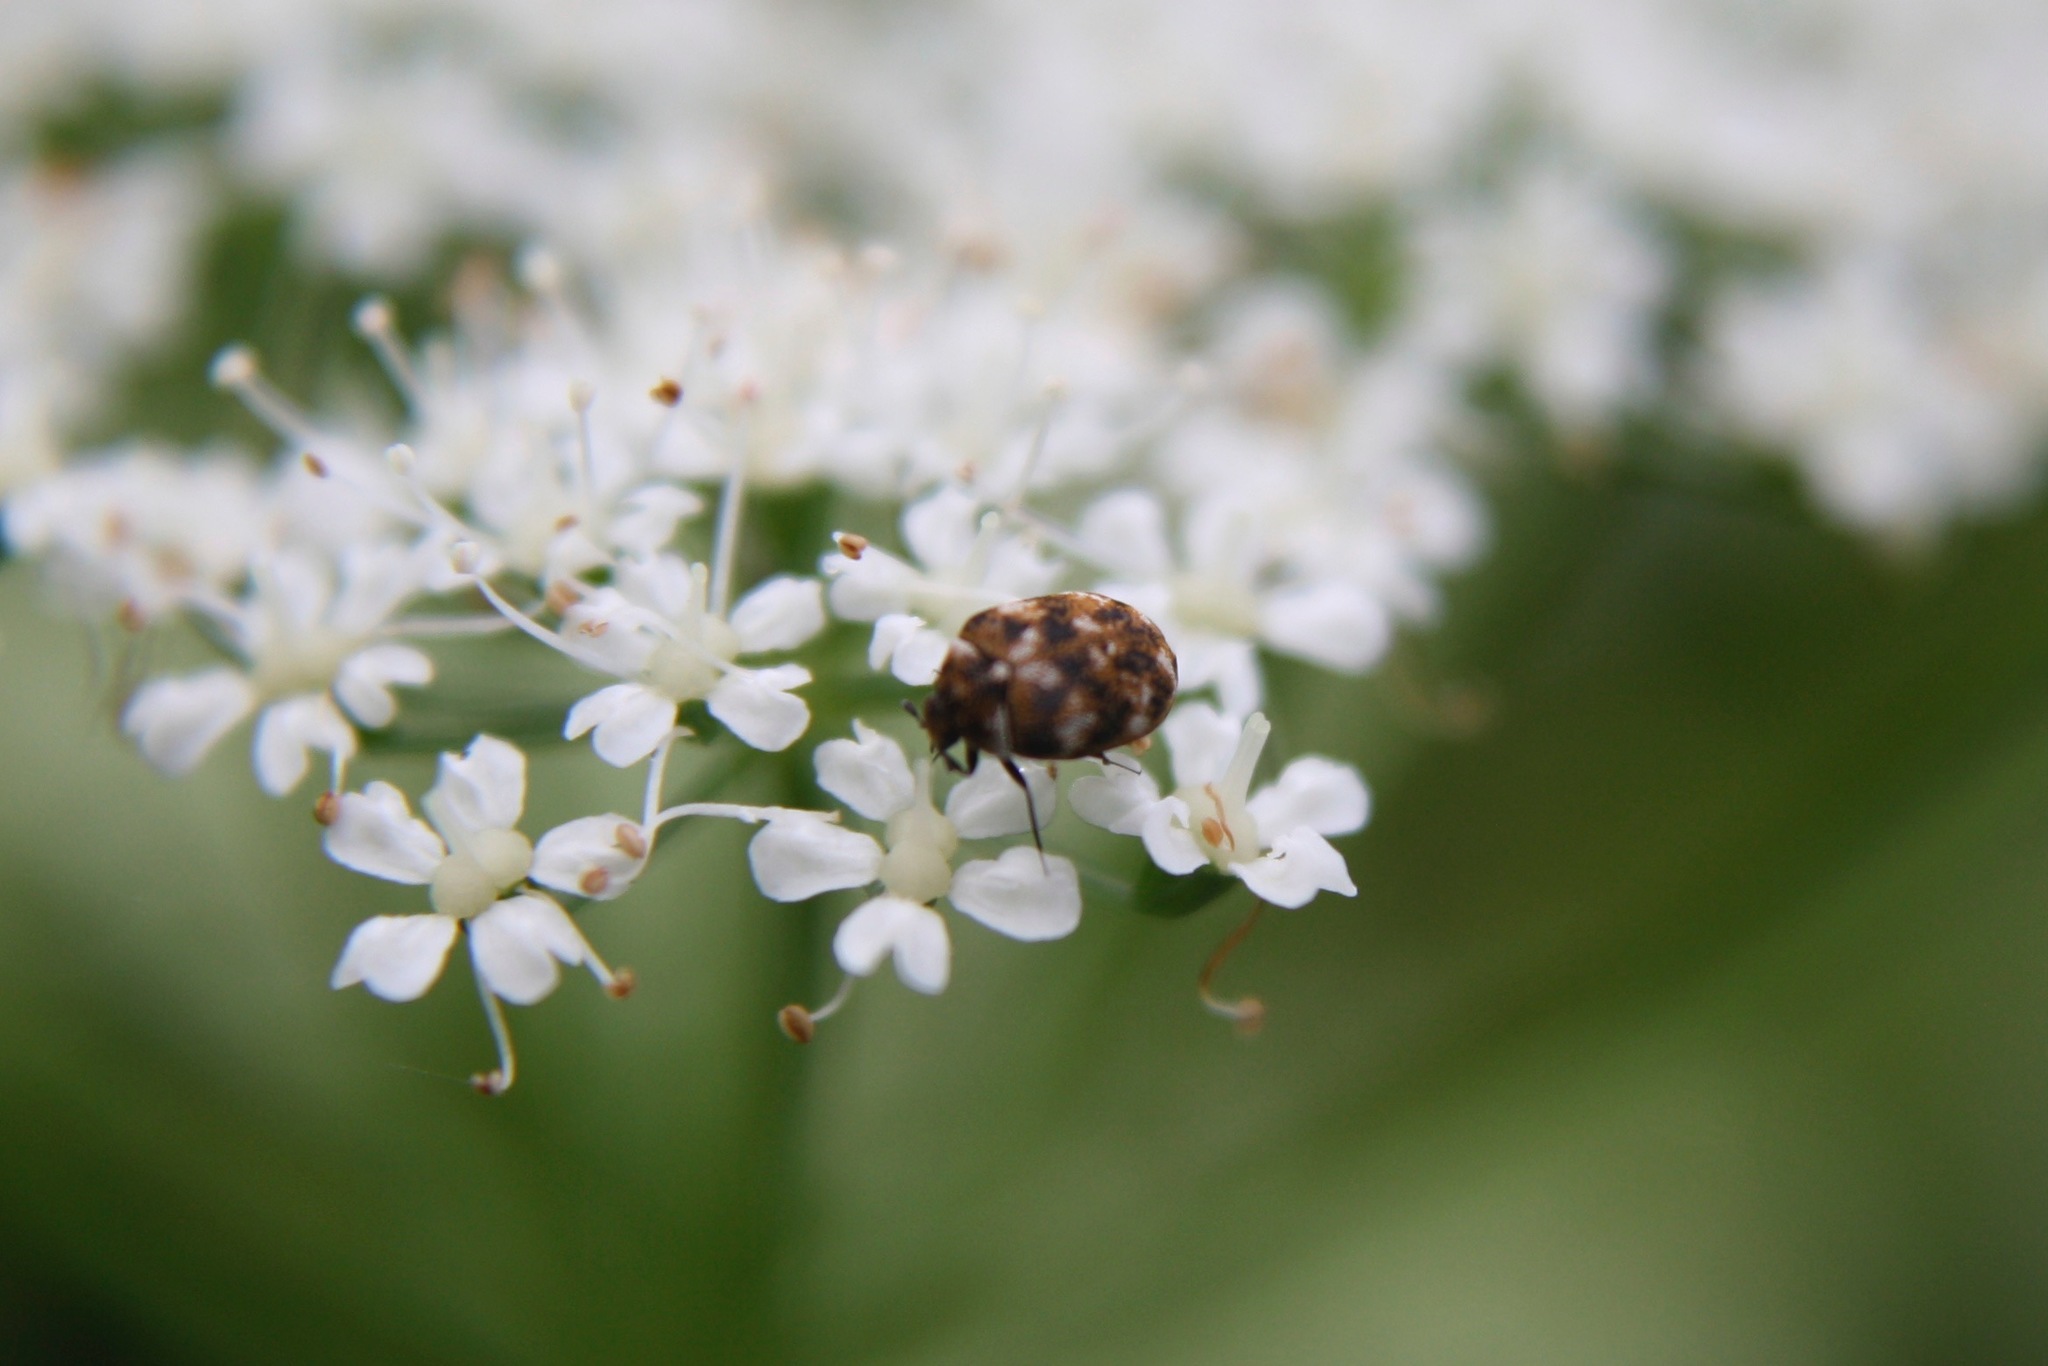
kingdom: Animalia
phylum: Arthropoda
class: Insecta
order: Coleoptera
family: Dermestidae
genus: Anthrenus
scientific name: Anthrenus verbasci
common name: Varied carpet beetle
